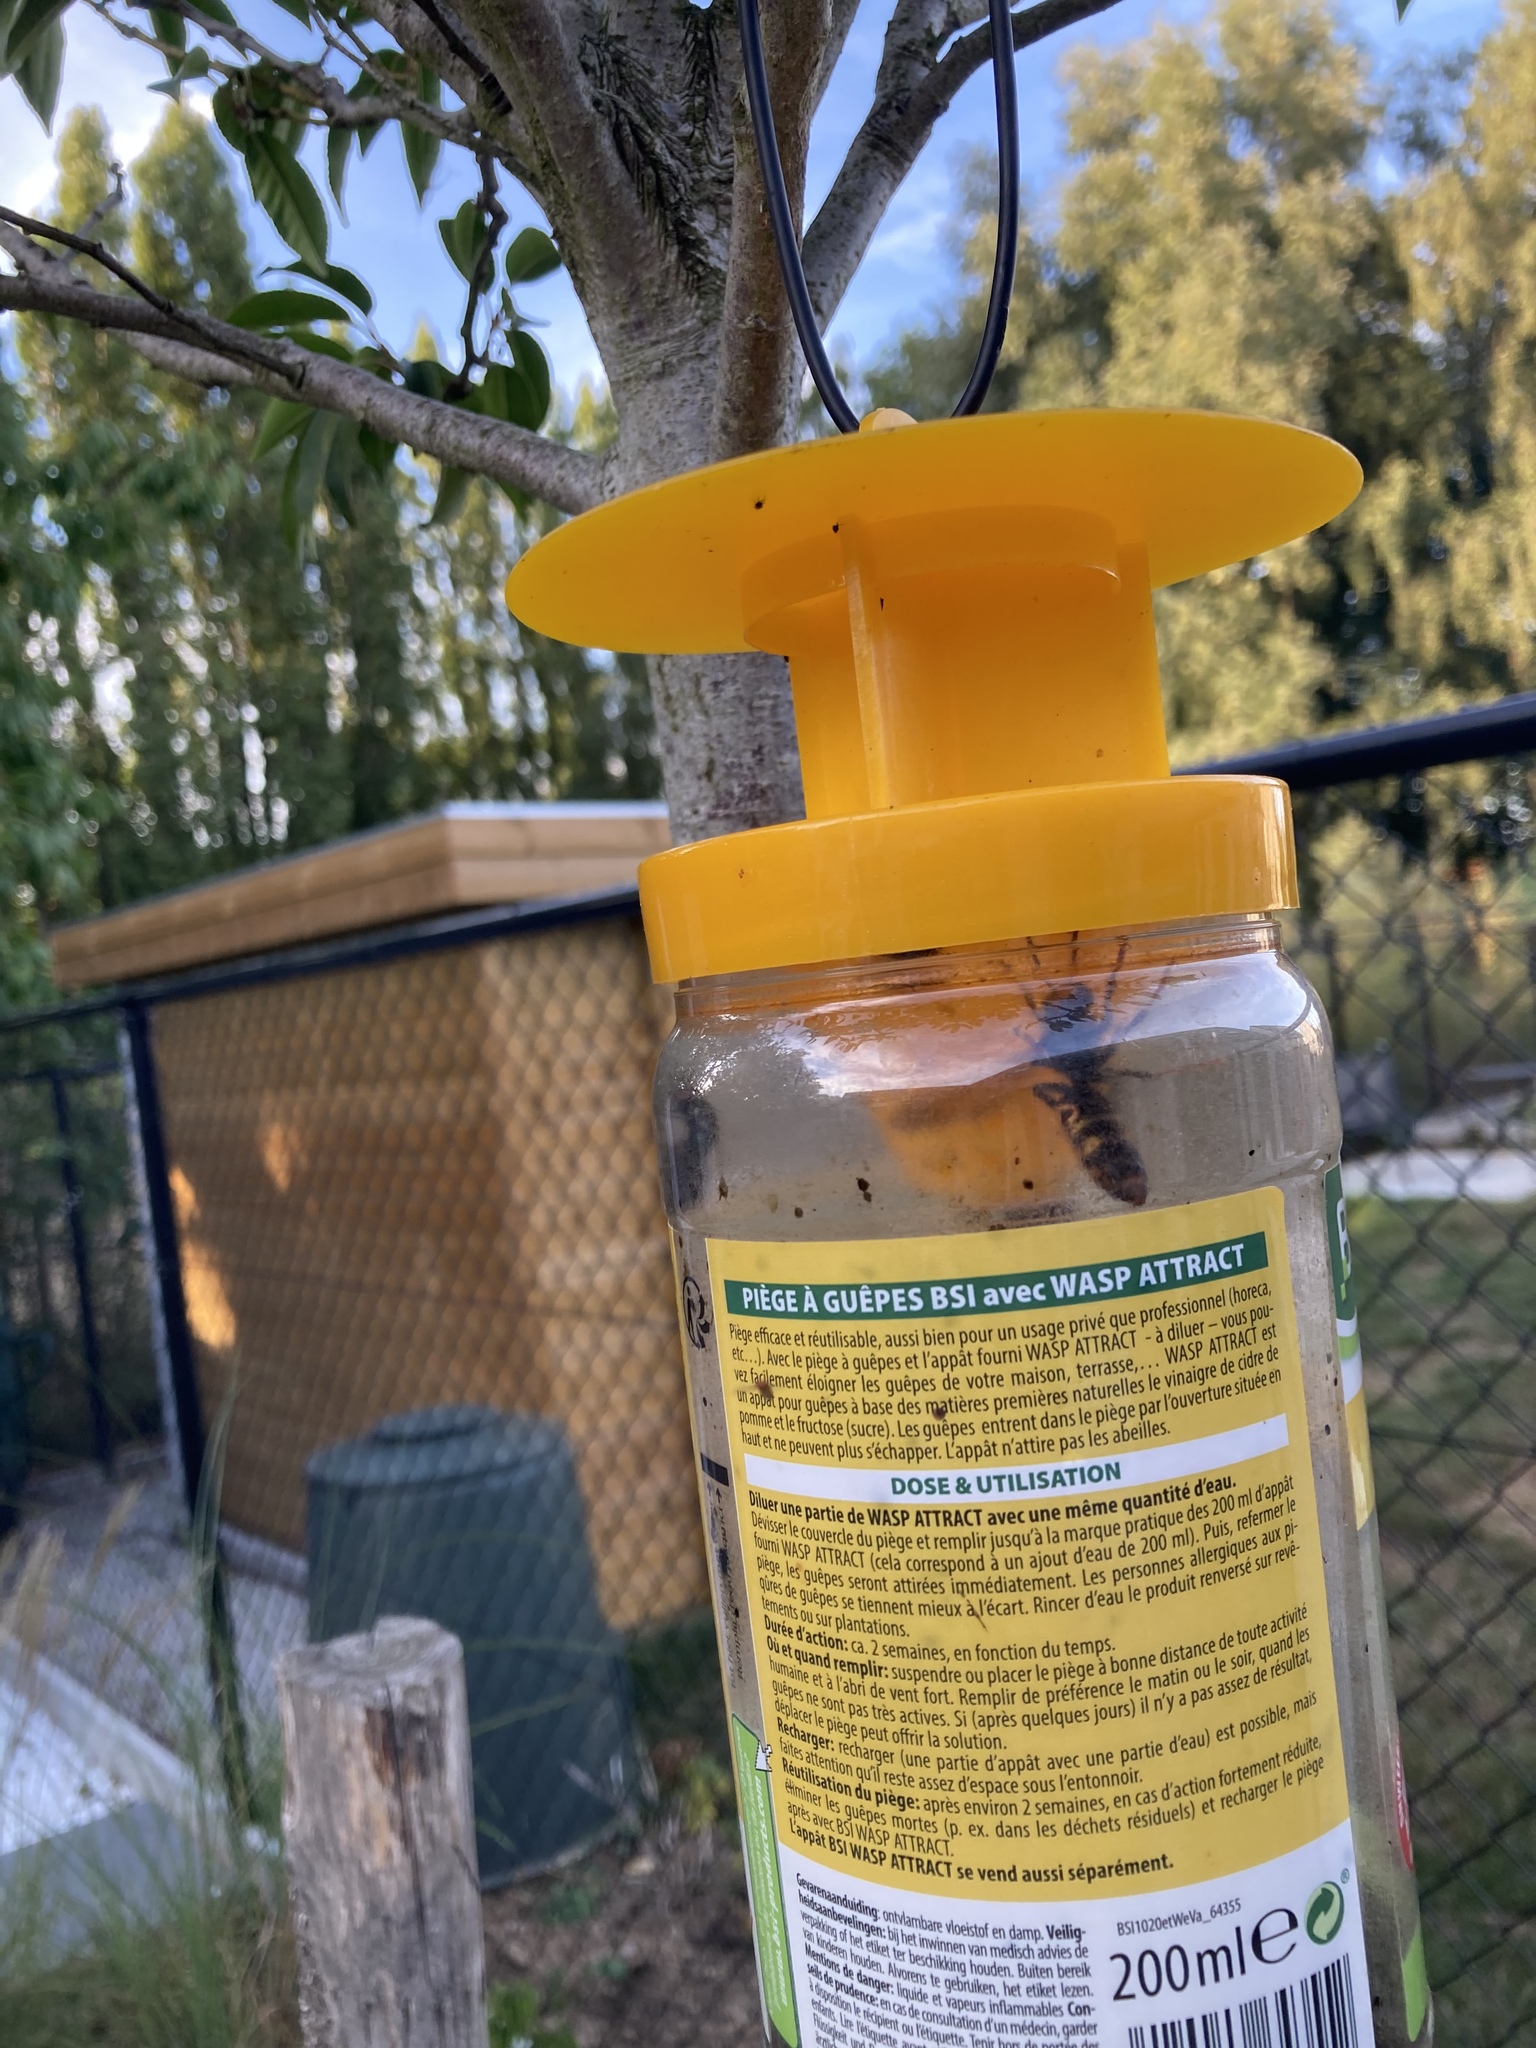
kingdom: Animalia
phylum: Arthropoda
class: Insecta
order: Hymenoptera
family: Vespidae
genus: Vespa
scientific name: Vespa velutina
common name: Asian hornet
